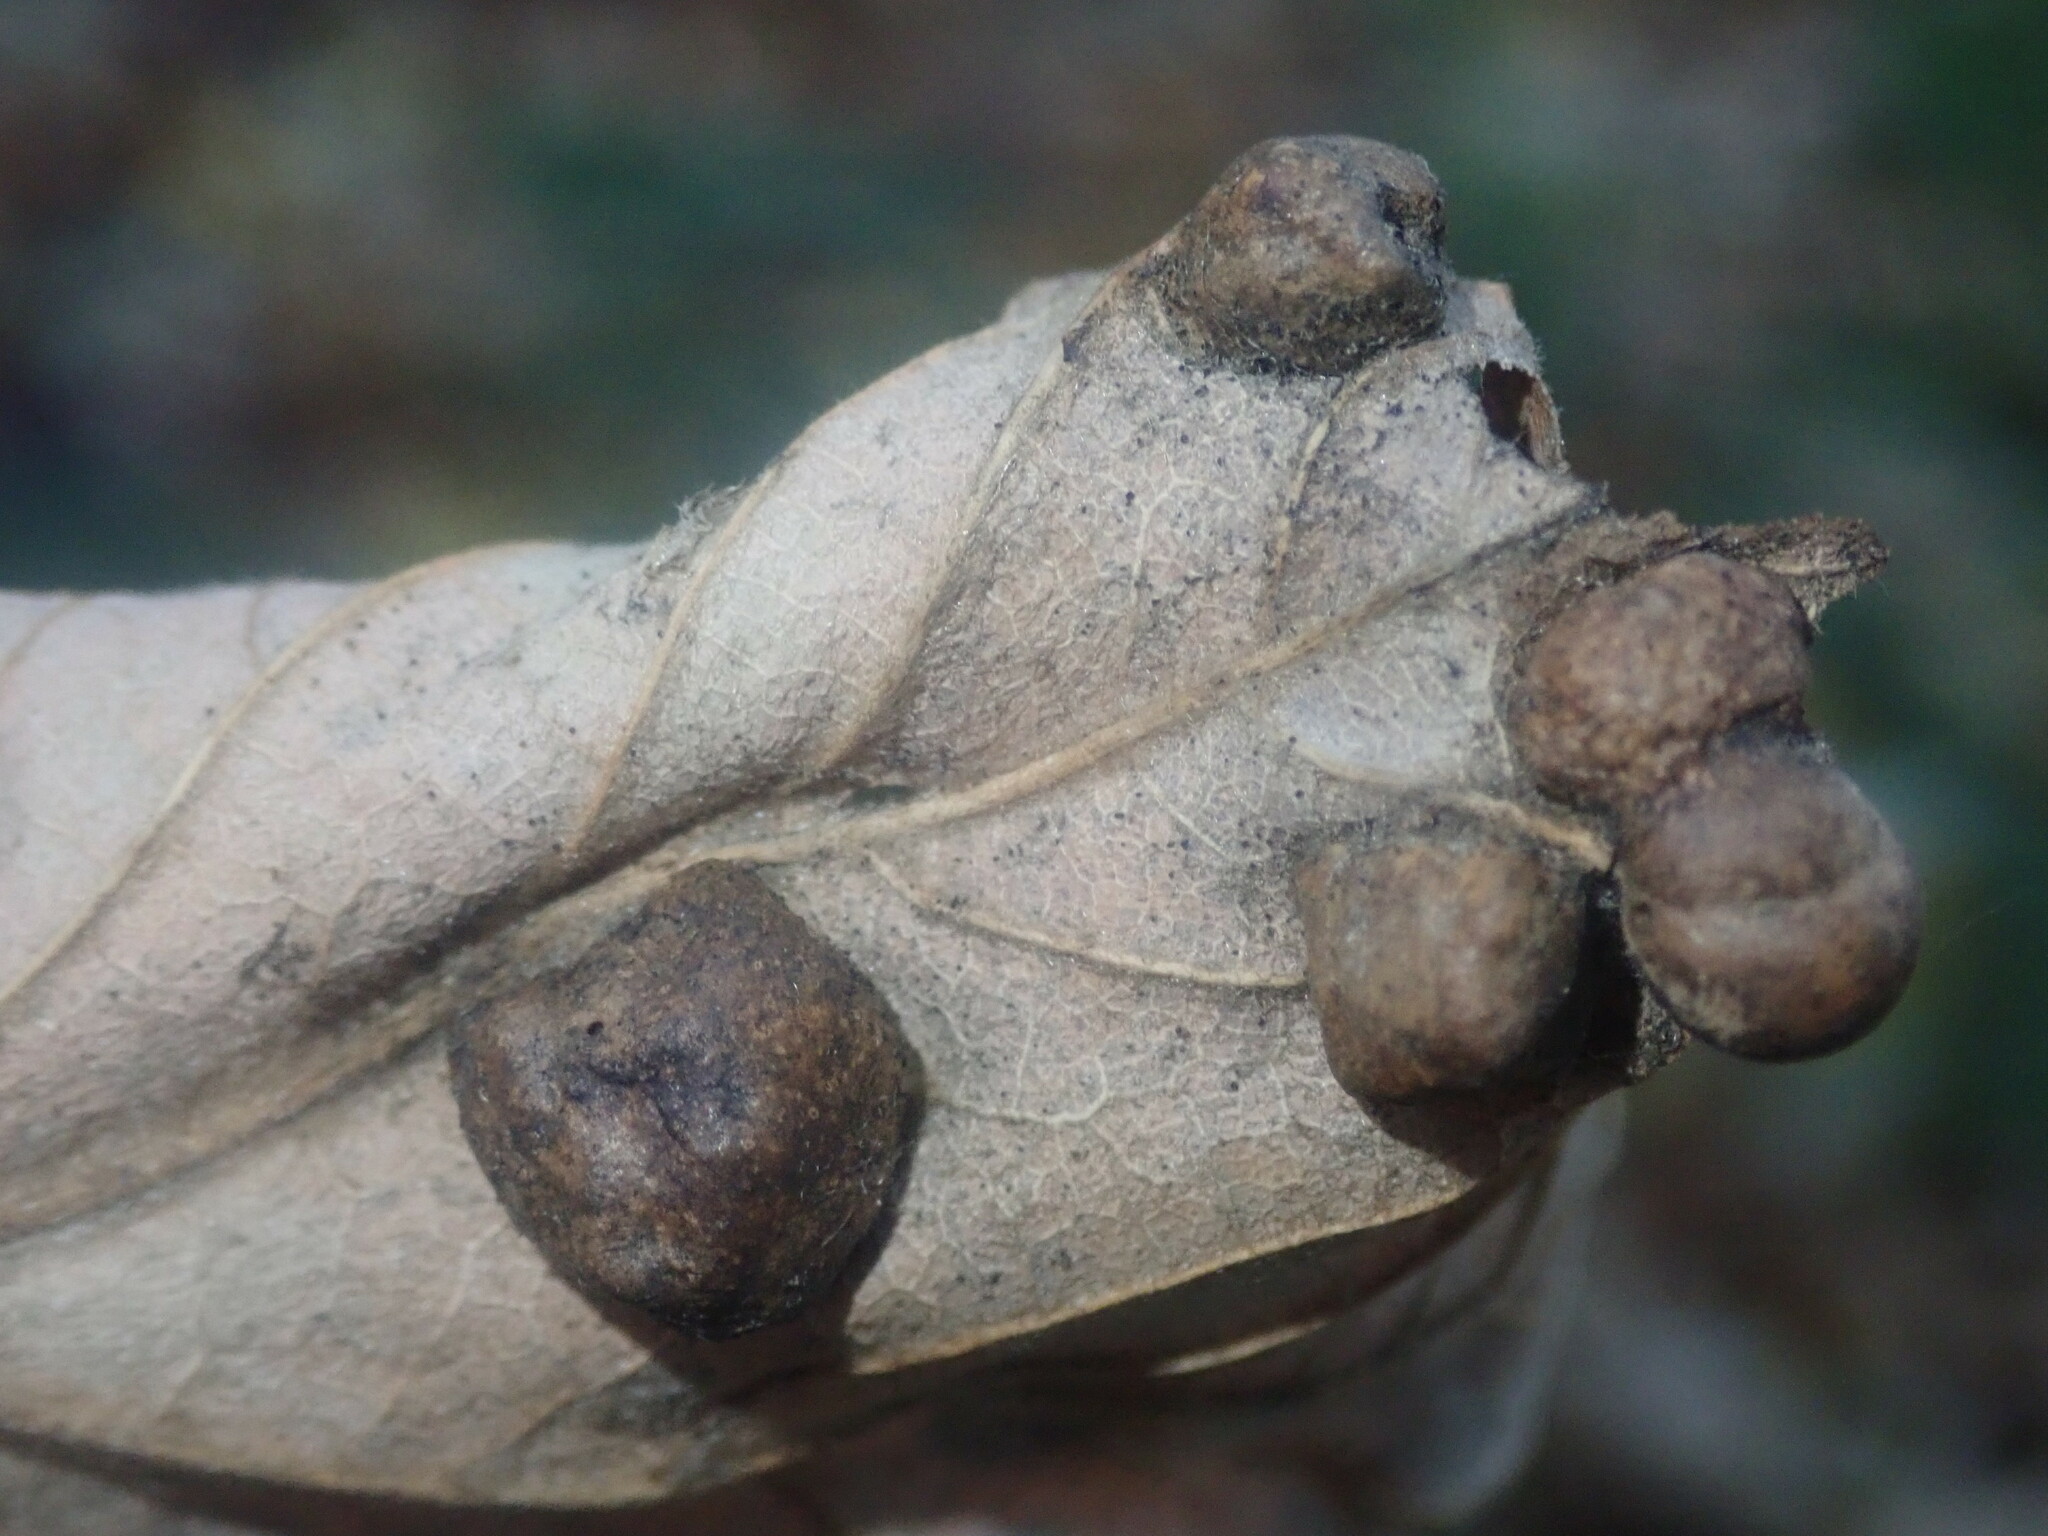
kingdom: Animalia
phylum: Arthropoda
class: Insecta
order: Hymenoptera
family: Cynipidae
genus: Pediaspis
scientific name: Pediaspis aceris
